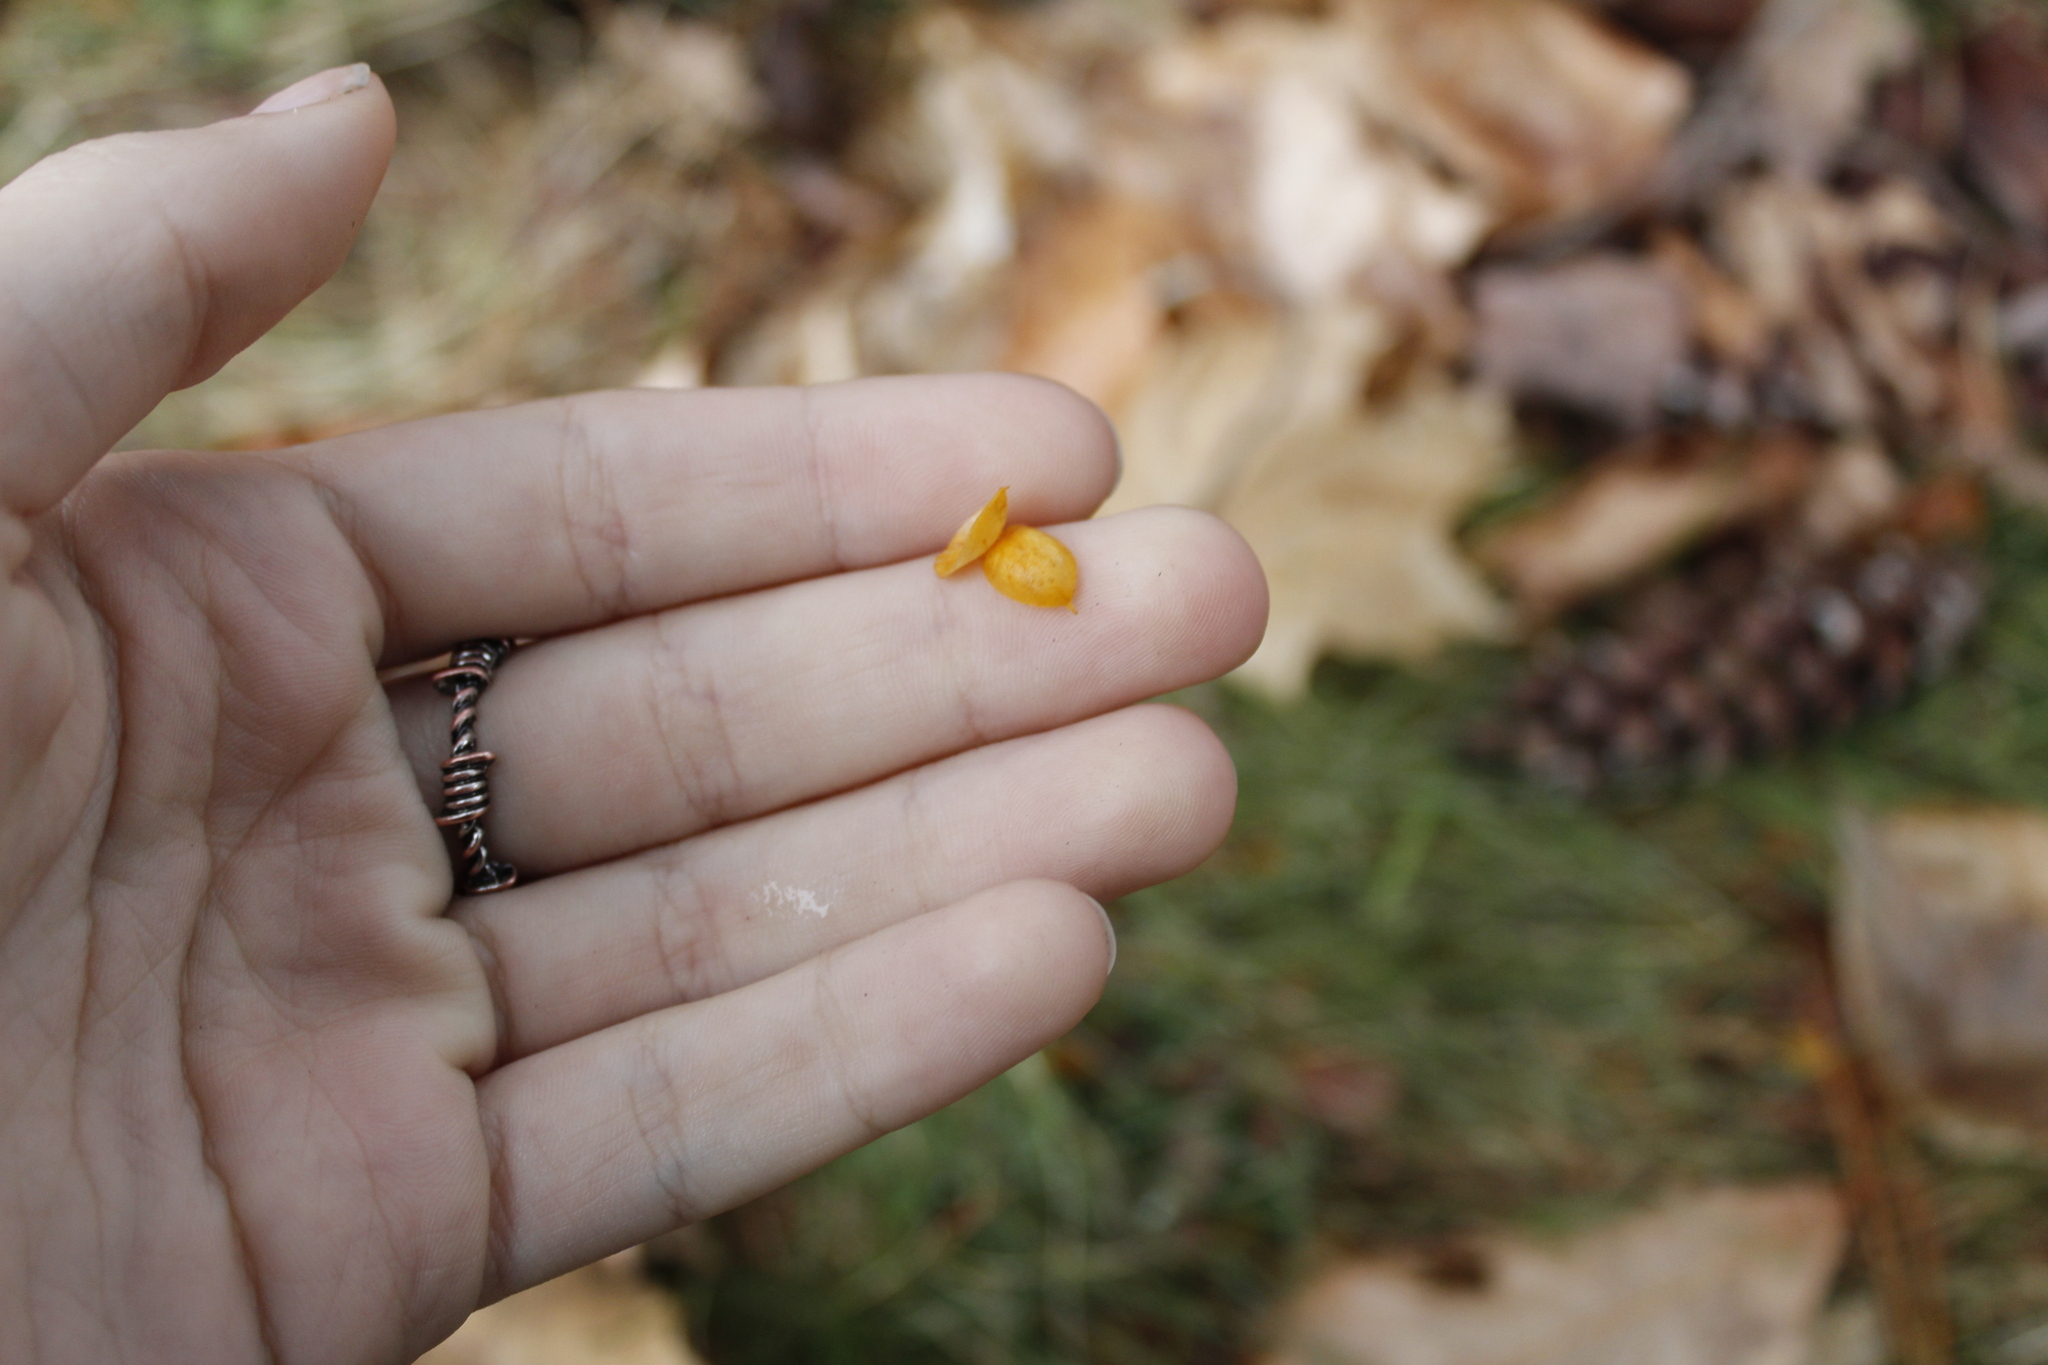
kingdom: Plantae
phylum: Tracheophyta
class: Magnoliopsida
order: Celastrales
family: Celastraceae
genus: Celastrus
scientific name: Celastrus orbiculatus
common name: Oriental bittersweet
